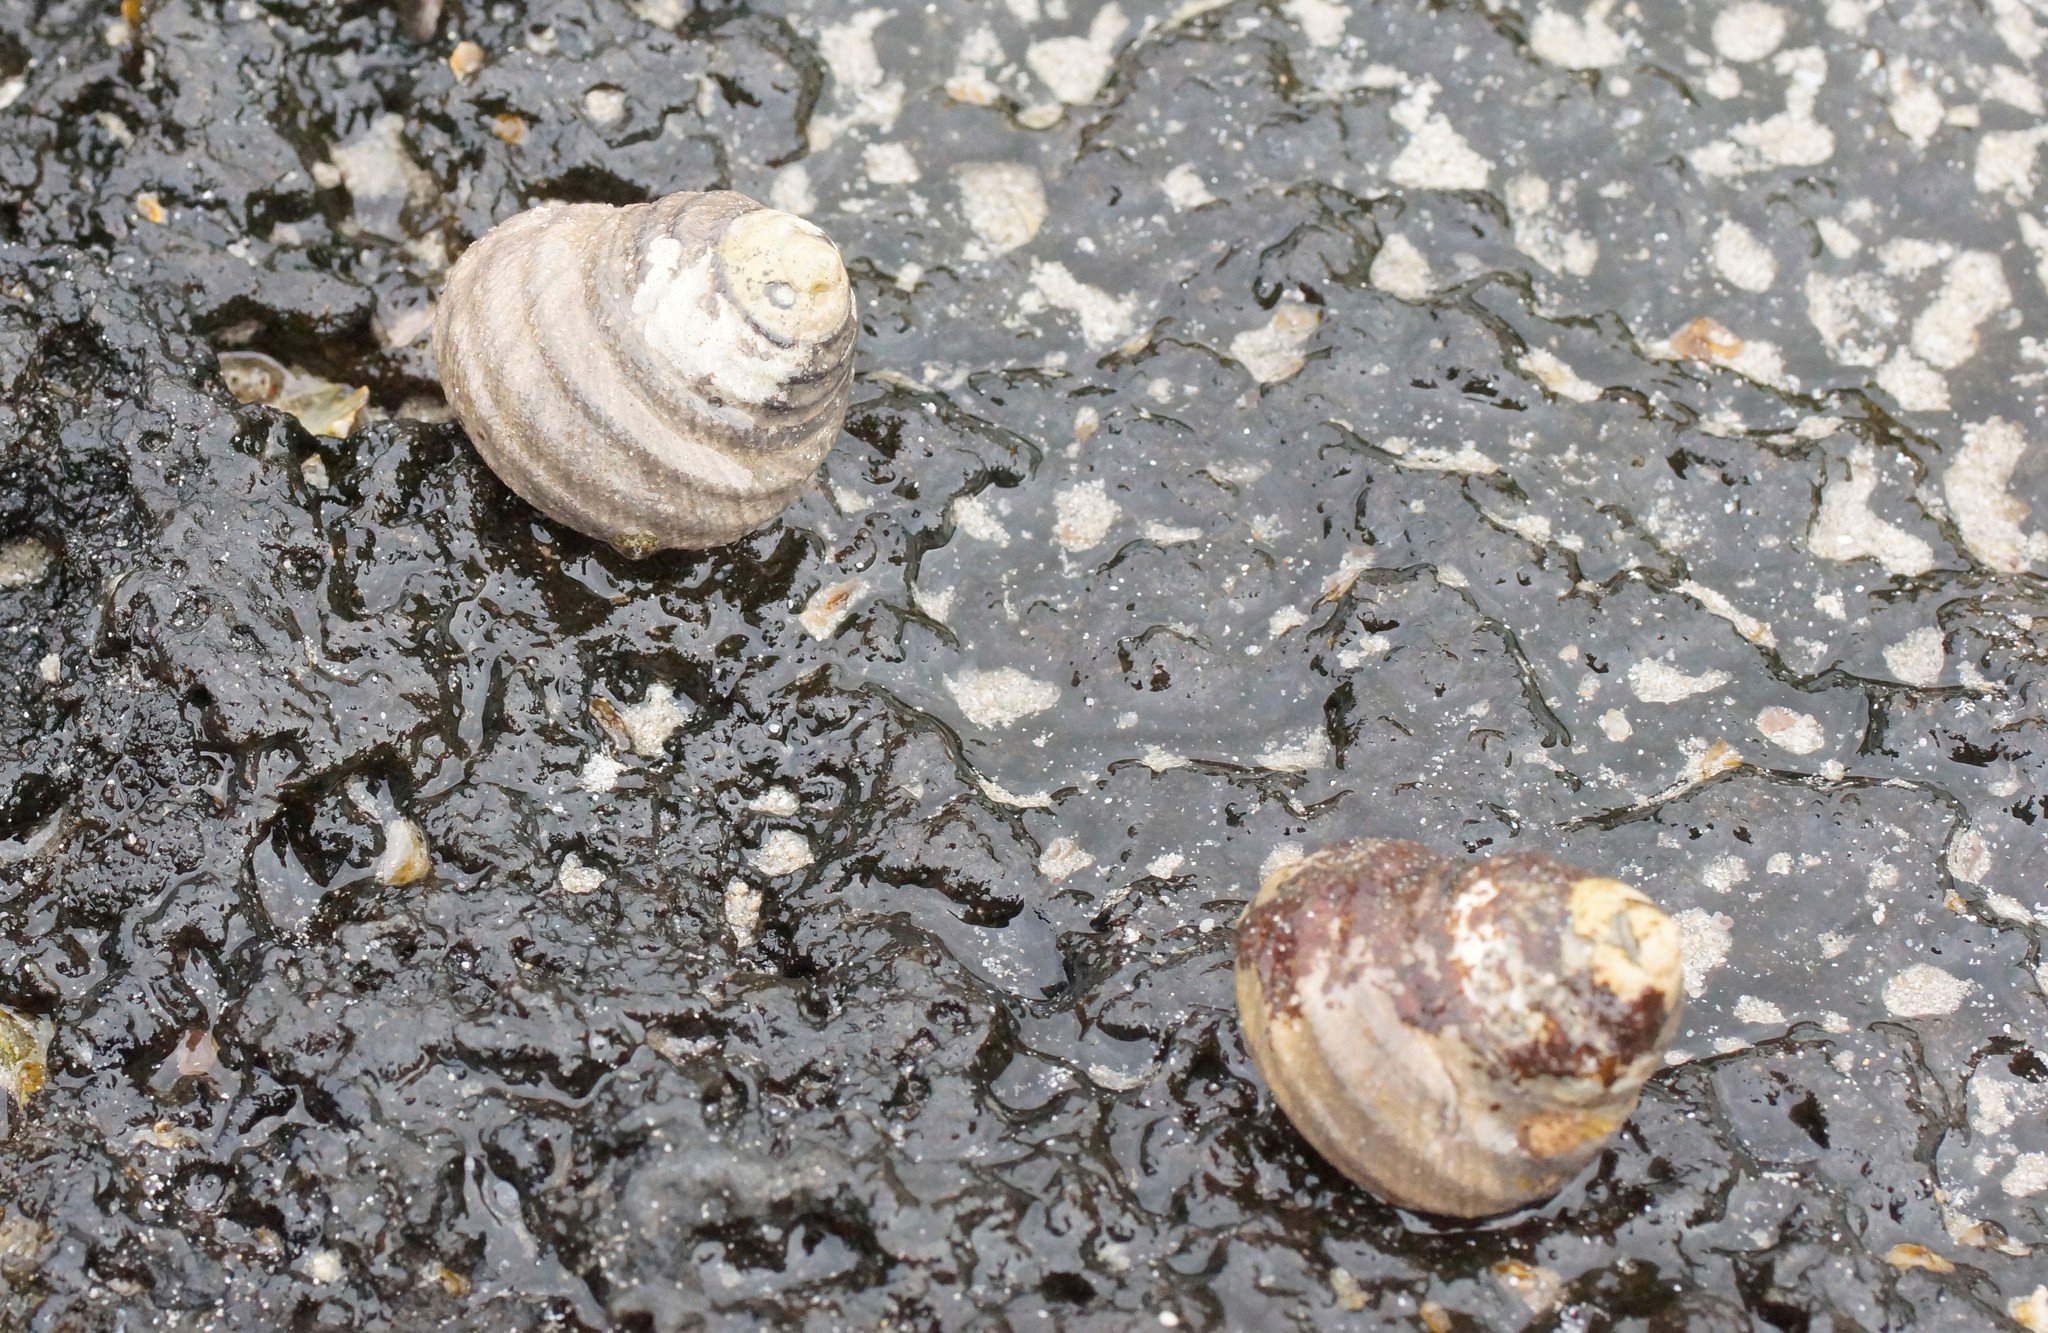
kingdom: Animalia
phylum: Mollusca
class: Gastropoda
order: Trochida
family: Trochidae
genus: Austrocochlea
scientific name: Austrocochlea constricta
